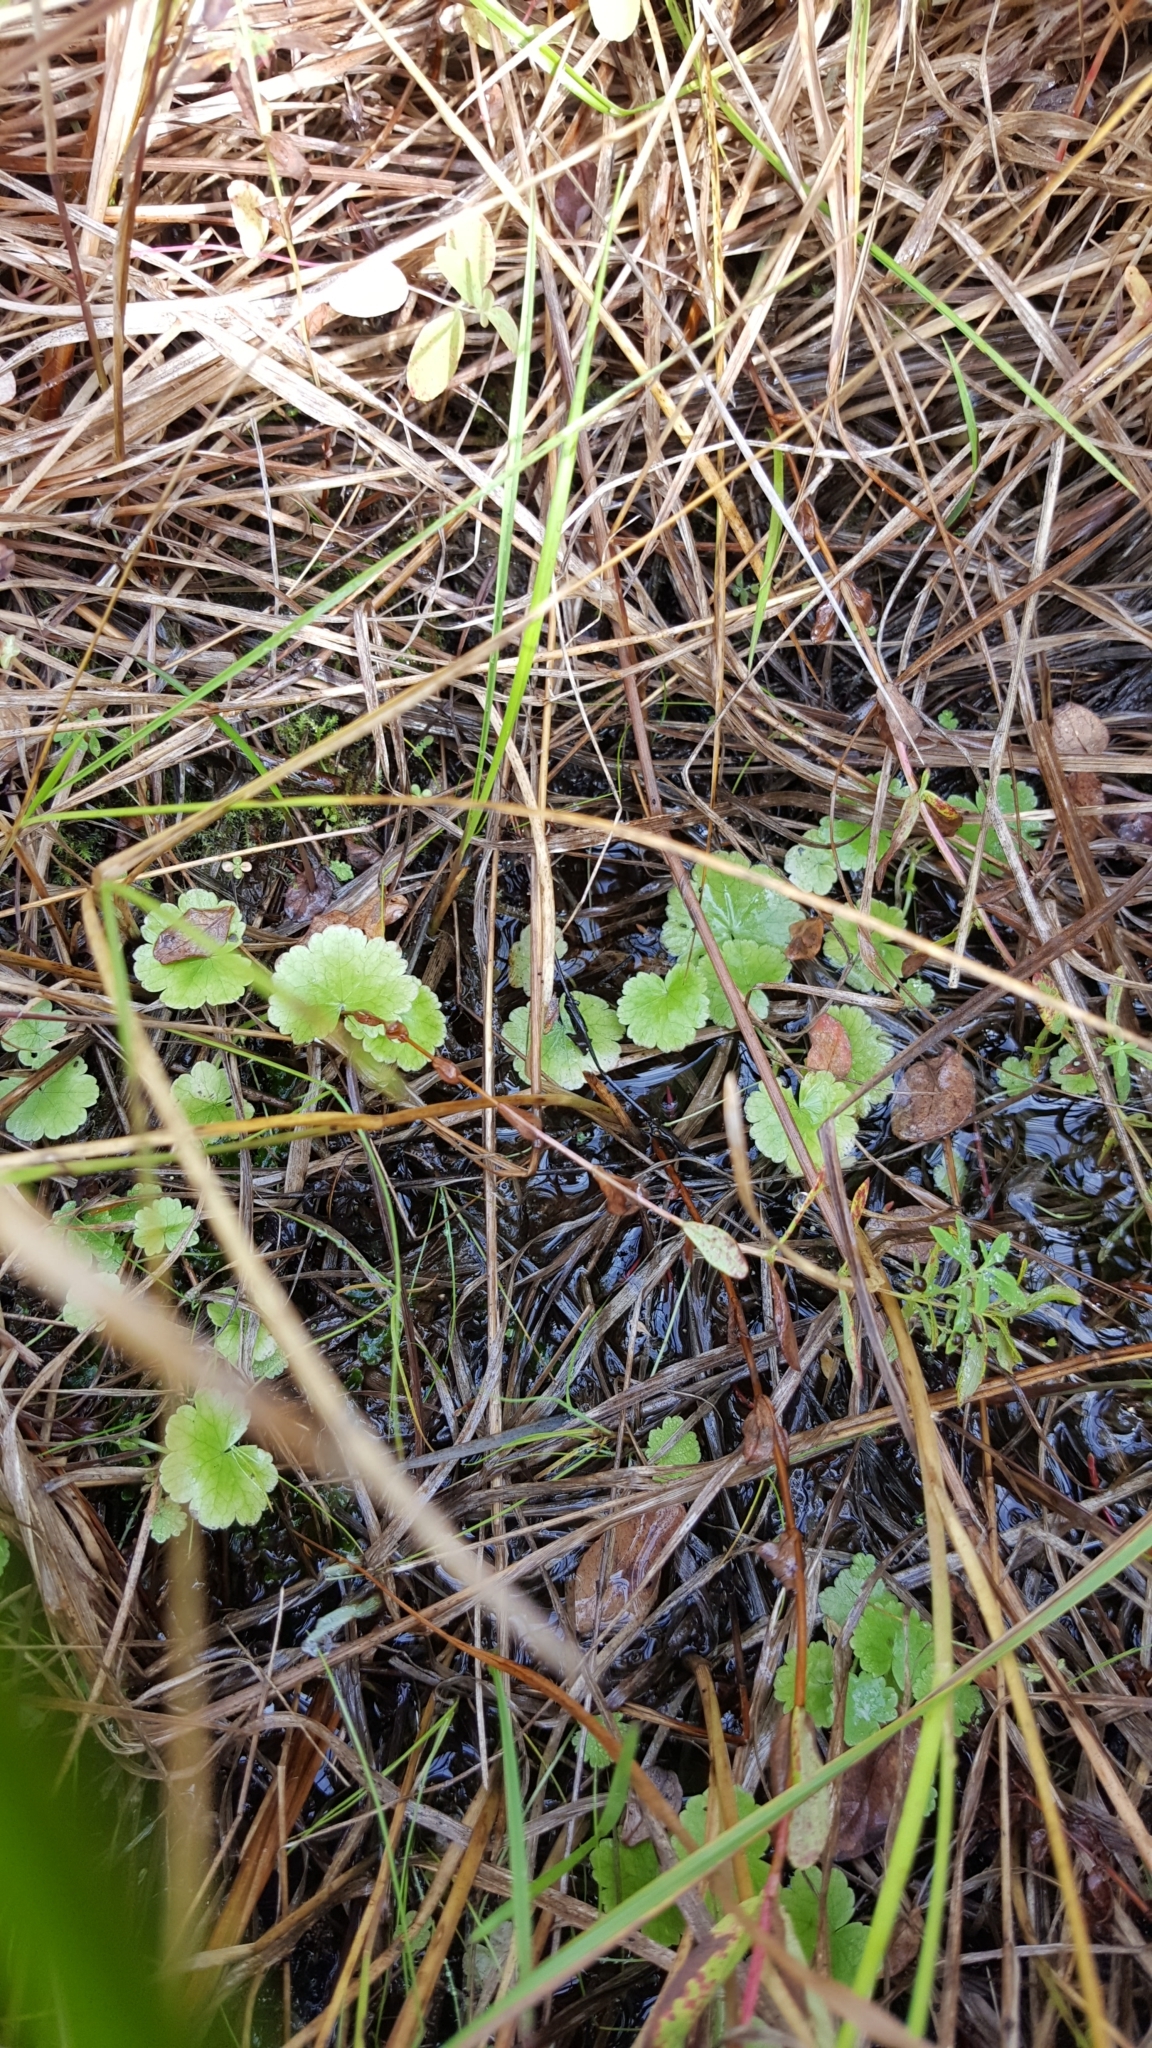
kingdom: Plantae
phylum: Tracheophyta
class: Magnoliopsida
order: Apiales
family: Araliaceae
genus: Hydrocotyle
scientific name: Hydrocotyle americana
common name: American water-pennywort
